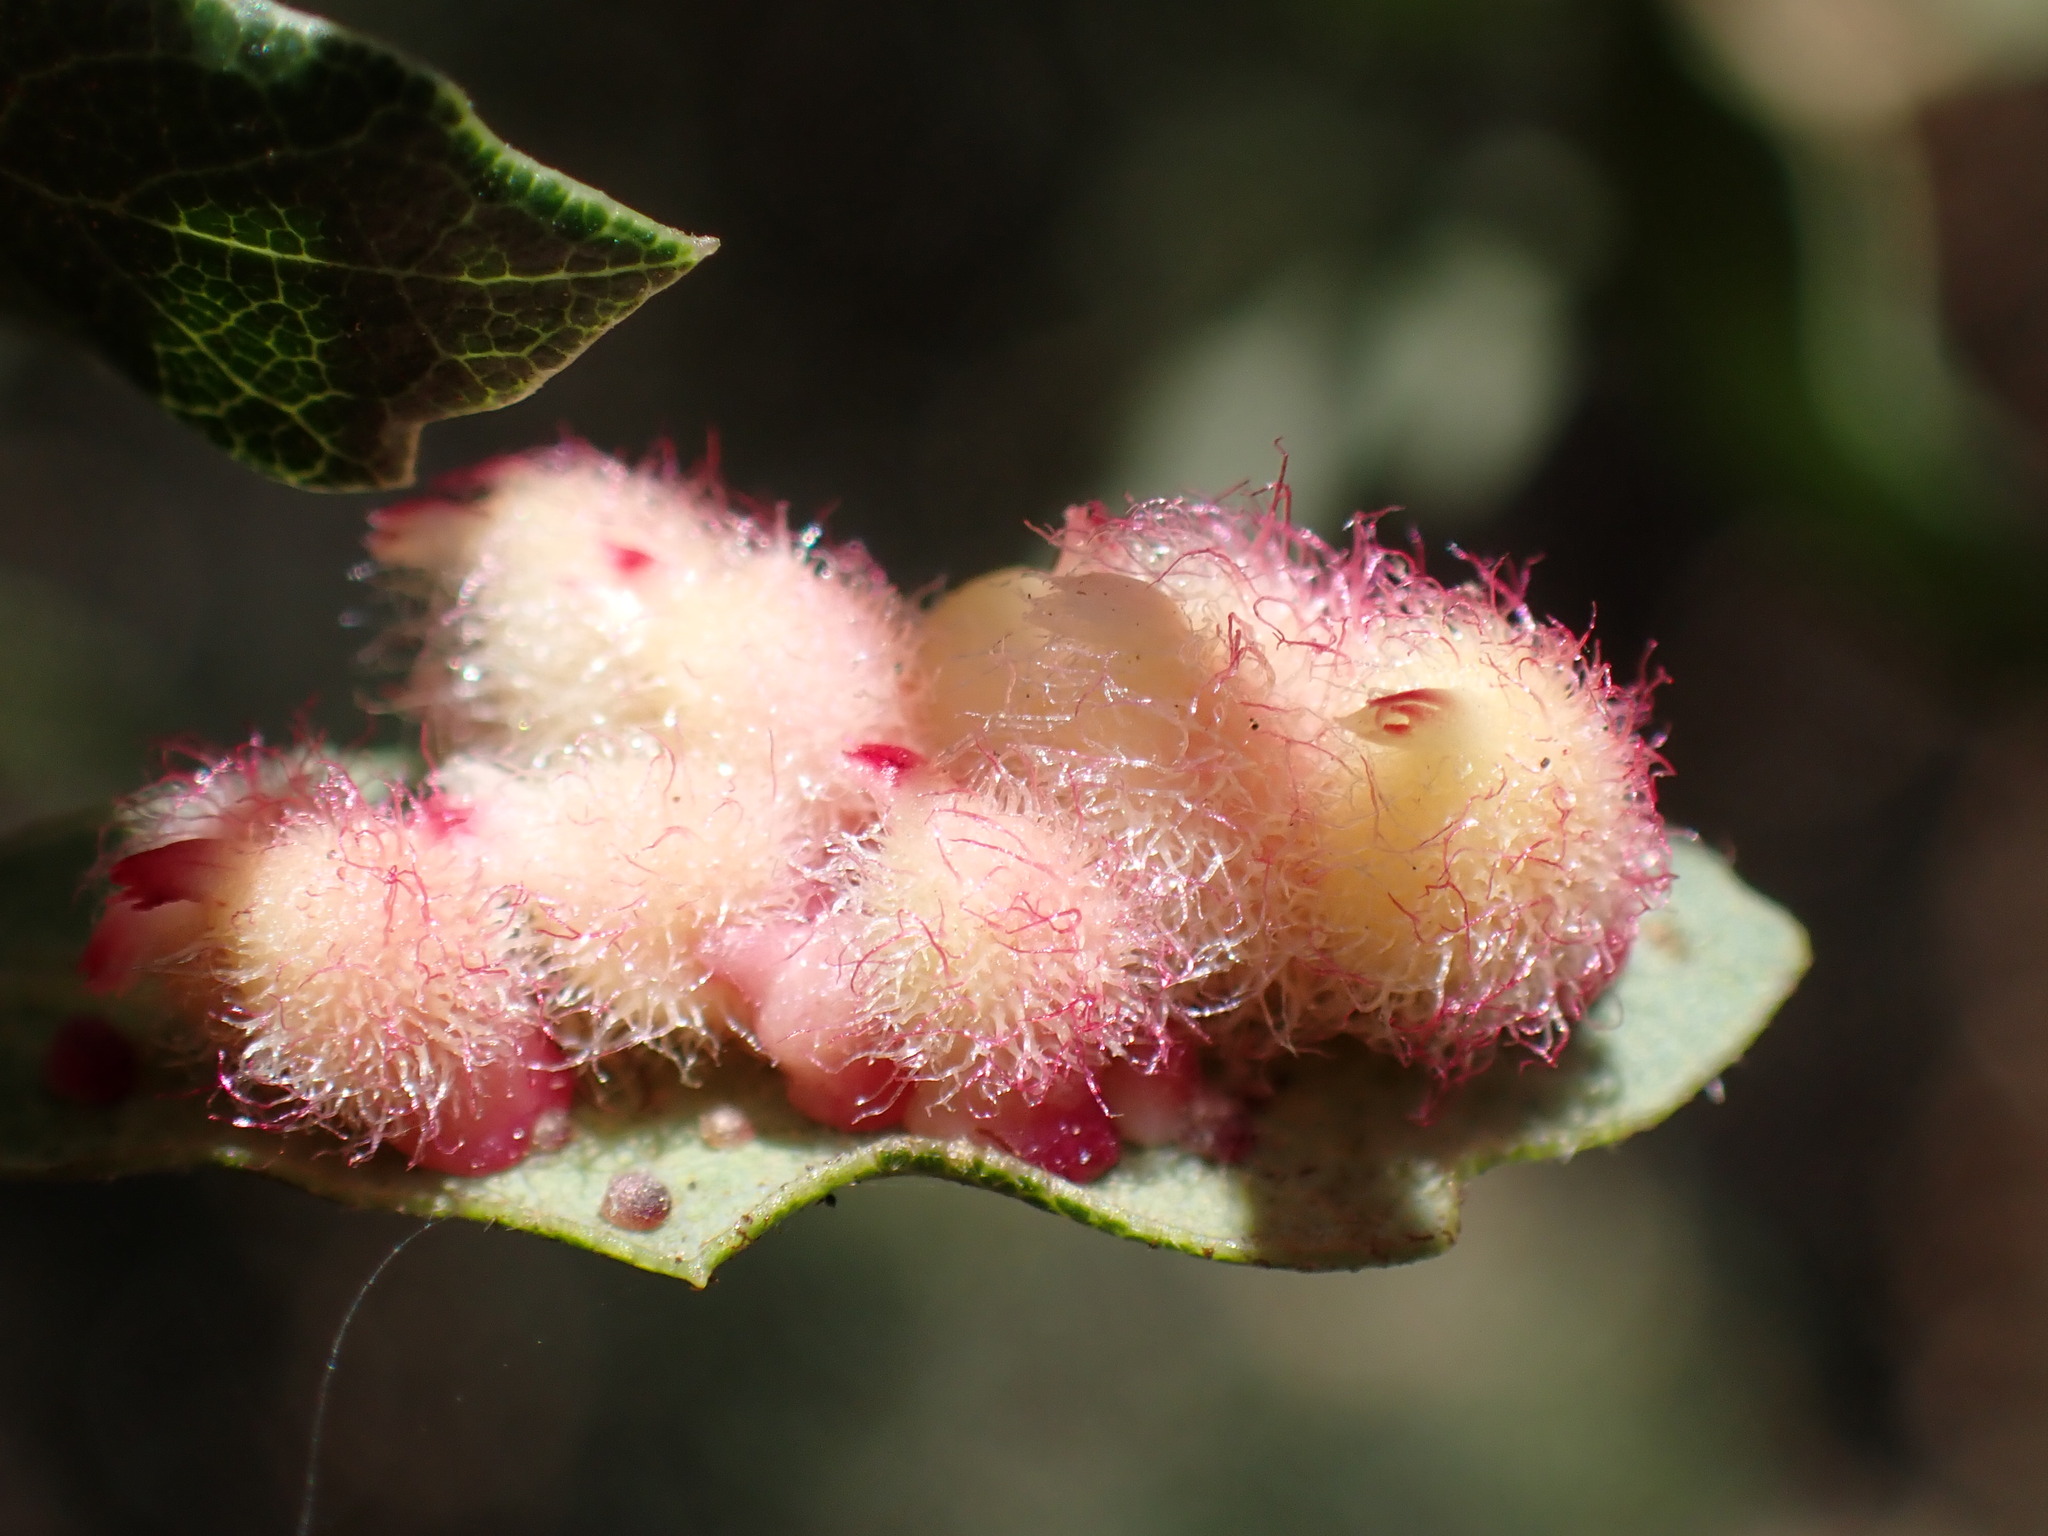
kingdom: Animalia
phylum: Arthropoda
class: Insecta
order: Hymenoptera
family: Cynipidae
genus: Andricus
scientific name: Andricus
